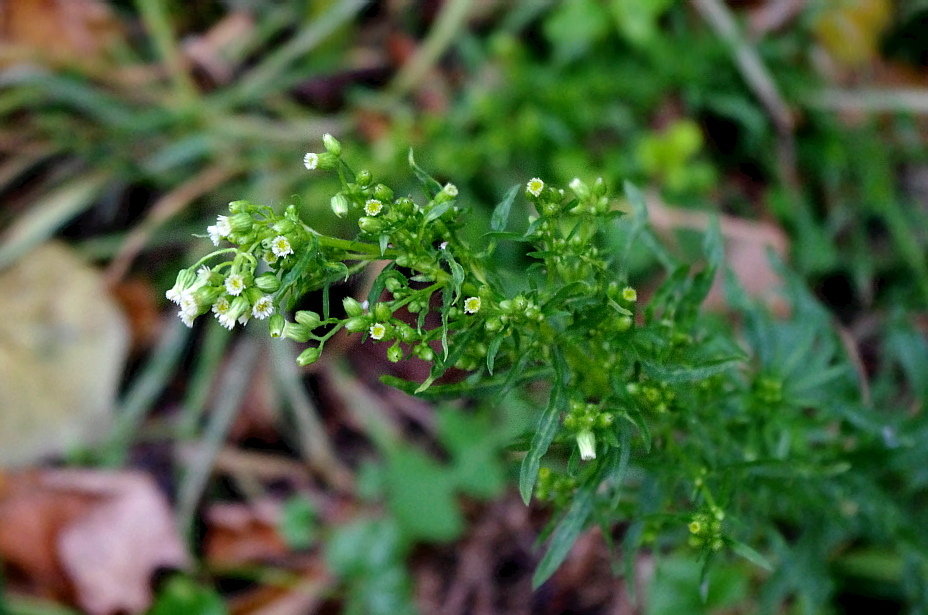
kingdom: Plantae
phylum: Tracheophyta
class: Magnoliopsida
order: Asterales
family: Asteraceae
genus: Erigeron
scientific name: Erigeron canadensis
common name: Canadian fleabane
